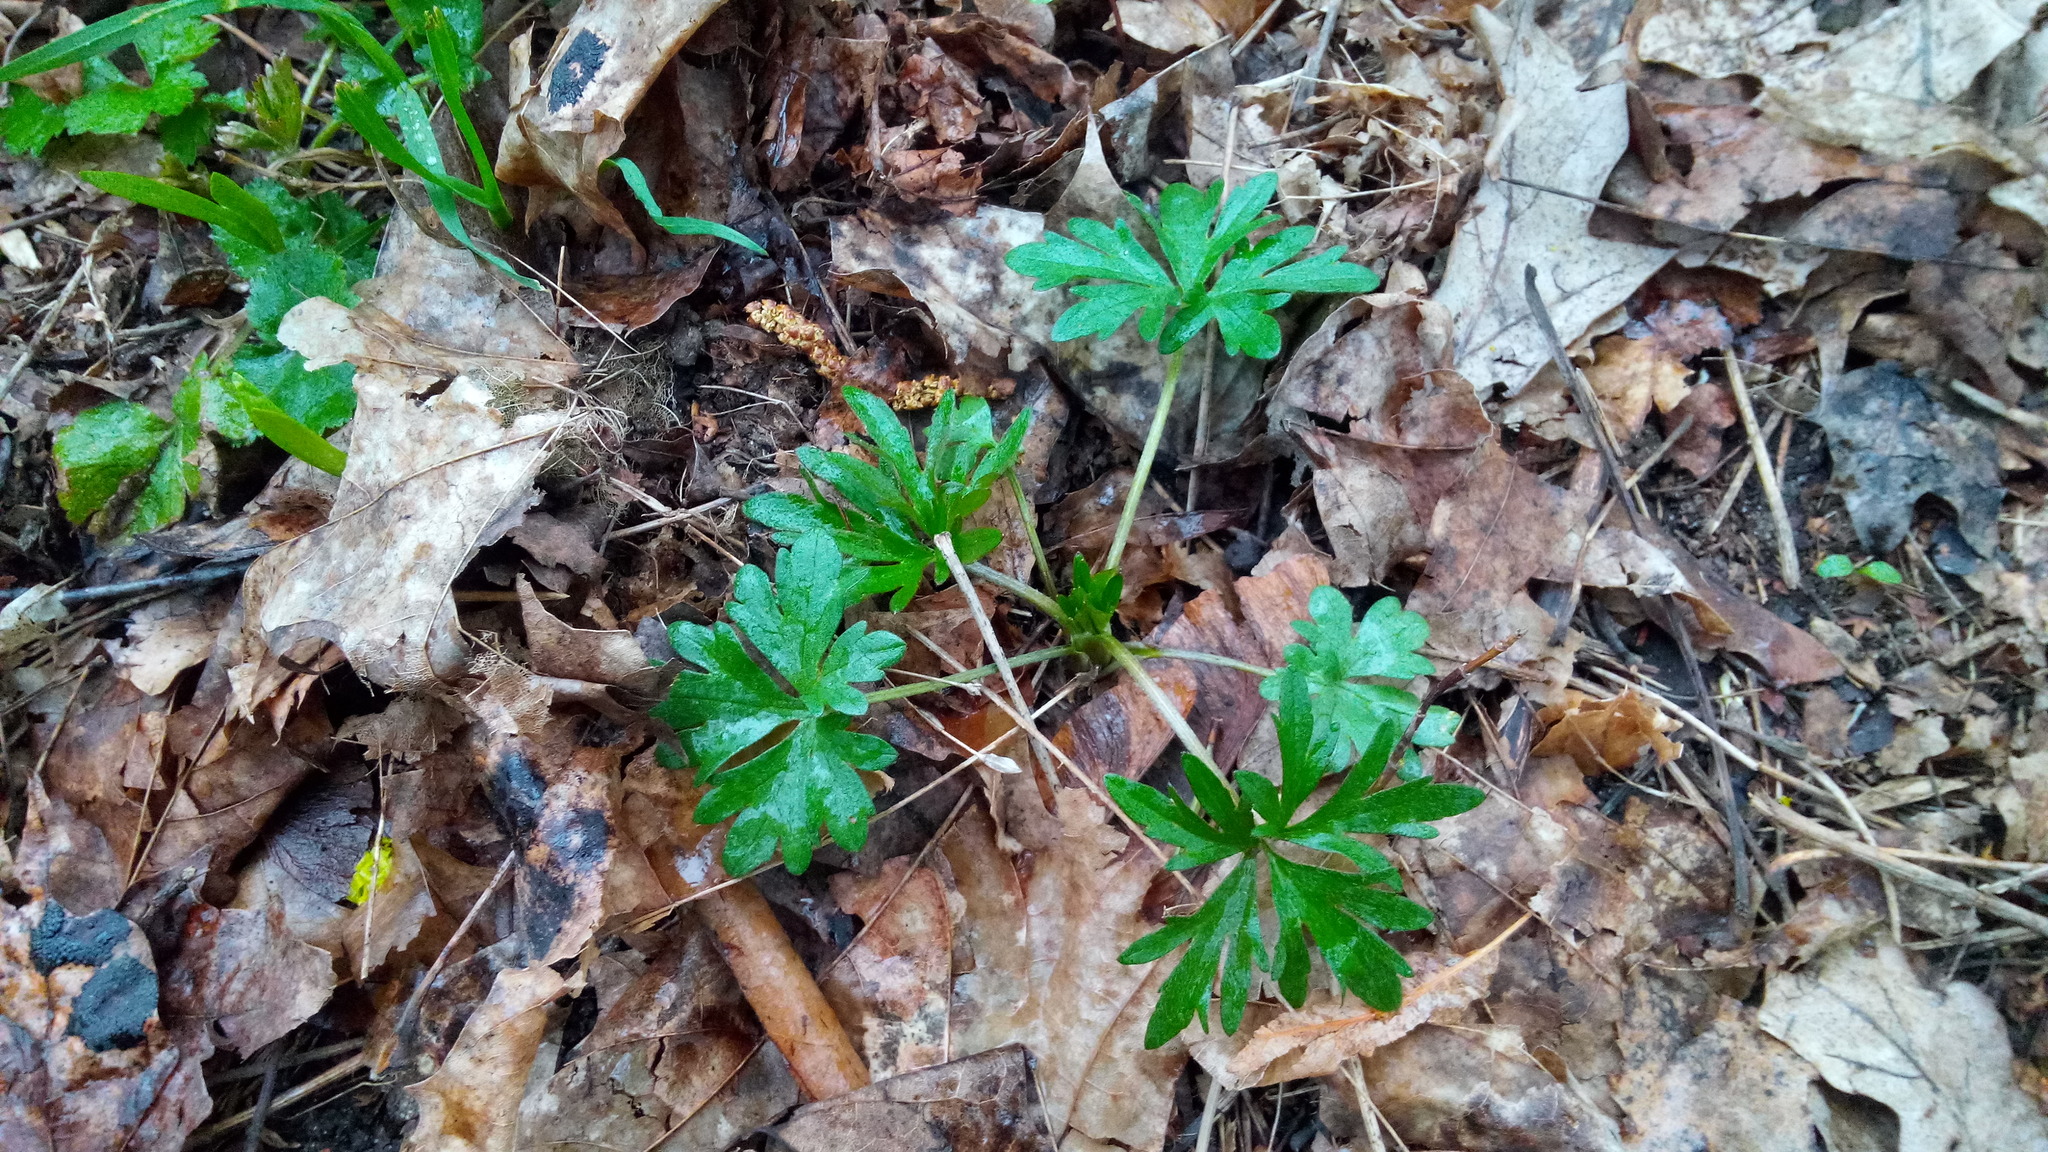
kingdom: Plantae
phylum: Tracheophyta
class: Magnoliopsida
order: Ranunculales
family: Ranunculaceae
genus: Ranunculus
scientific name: Ranunculus acris
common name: Meadow buttercup
